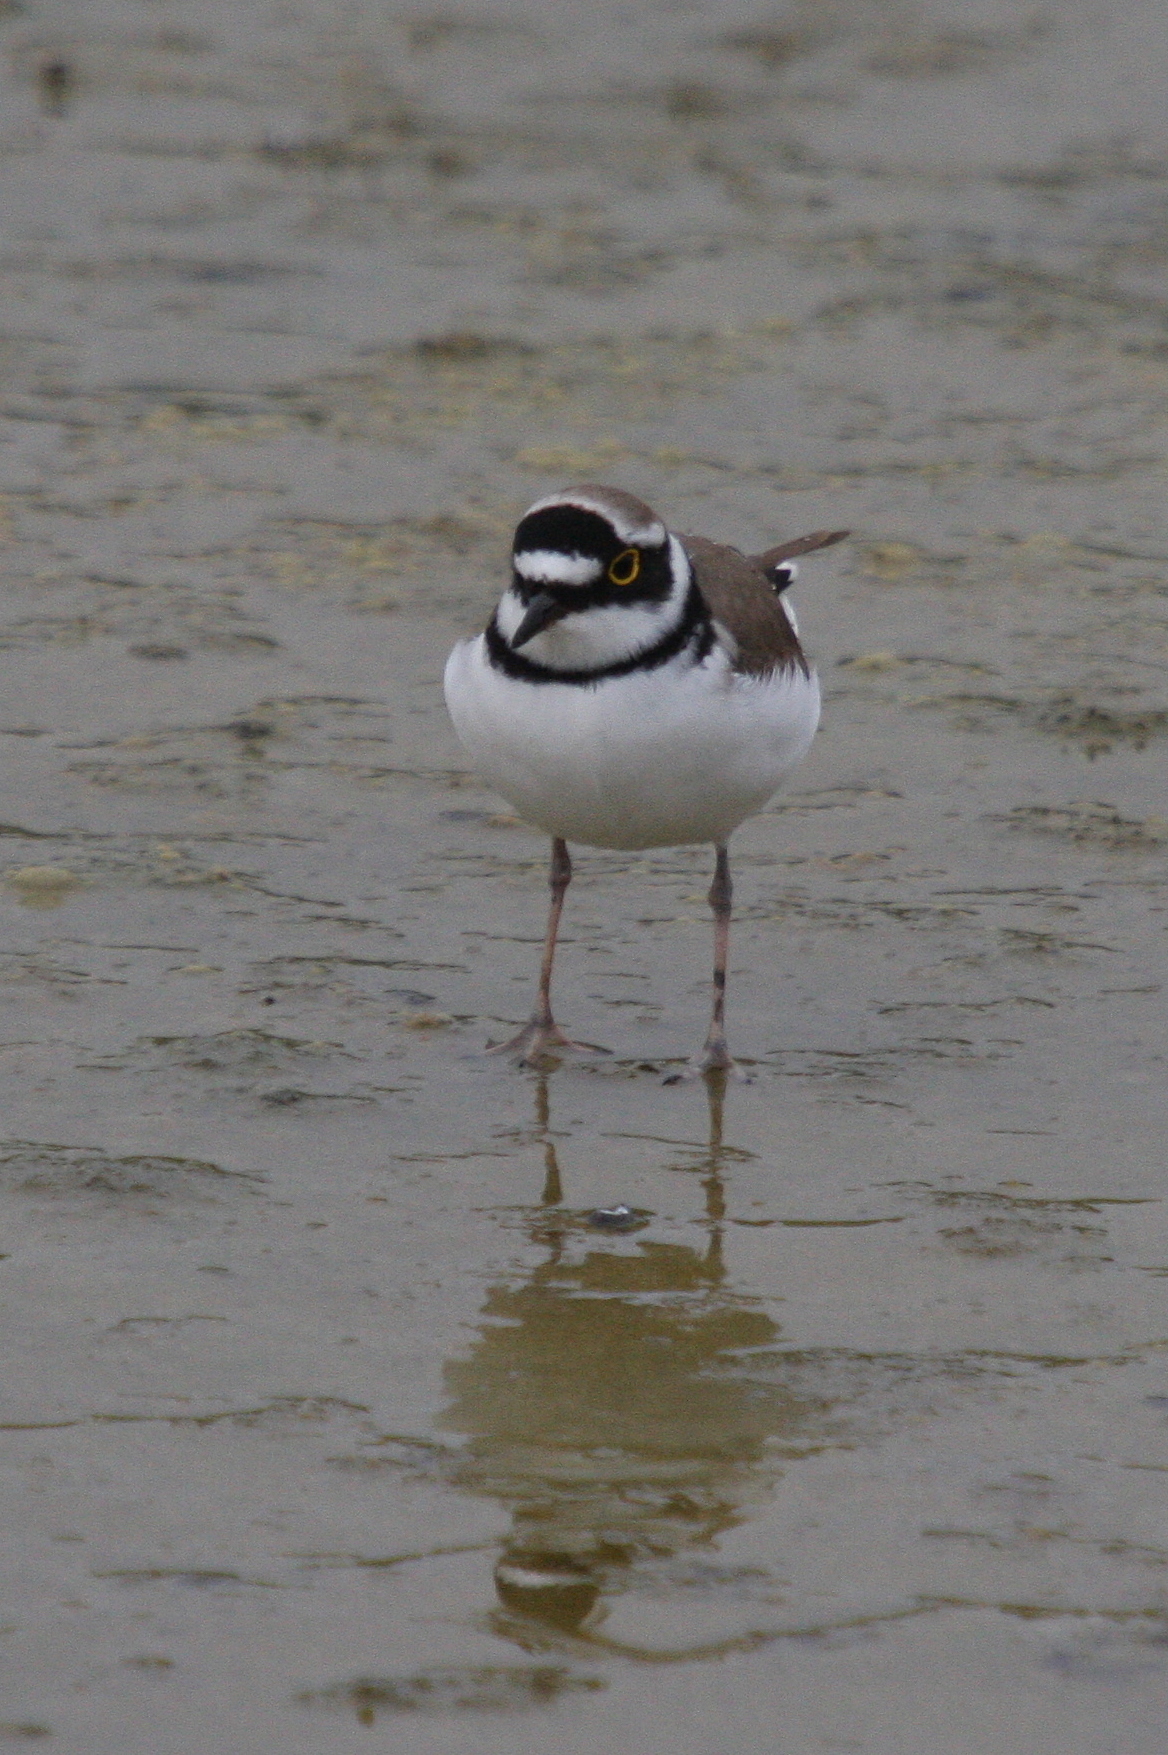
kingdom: Animalia
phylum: Chordata
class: Aves
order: Charadriiformes
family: Charadriidae
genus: Charadrius
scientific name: Charadrius dubius
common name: Little ringed plover
